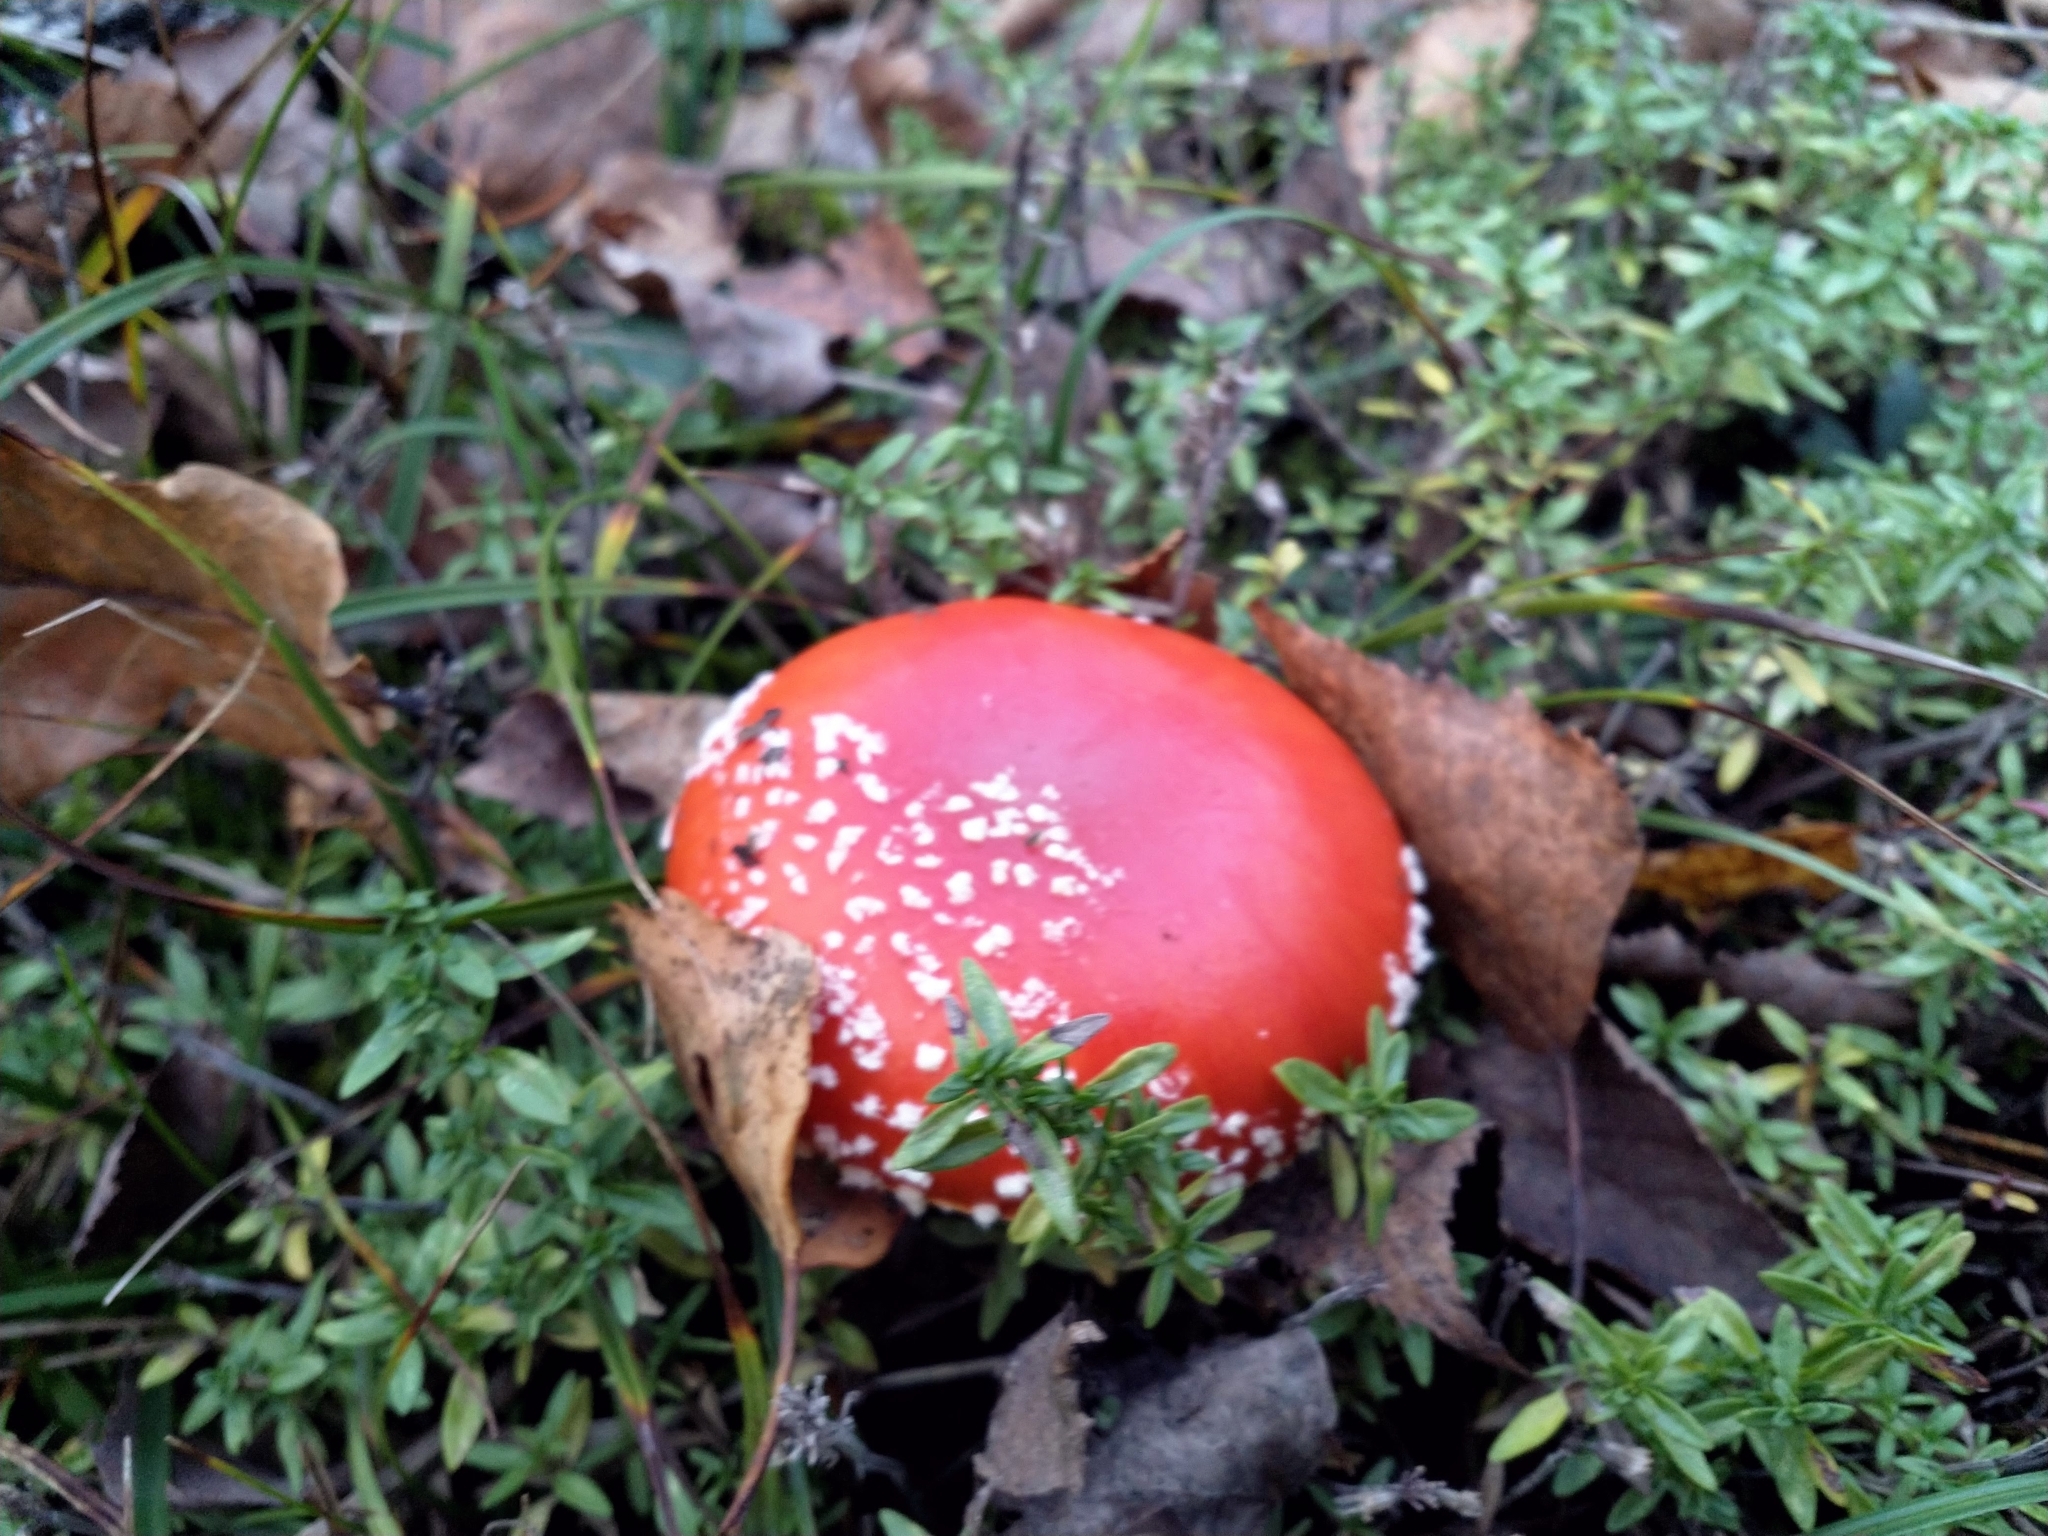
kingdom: Fungi
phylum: Basidiomycota
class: Agaricomycetes
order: Agaricales
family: Amanitaceae
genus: Amanita
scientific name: Amanita muscaria
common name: Fly agaric
